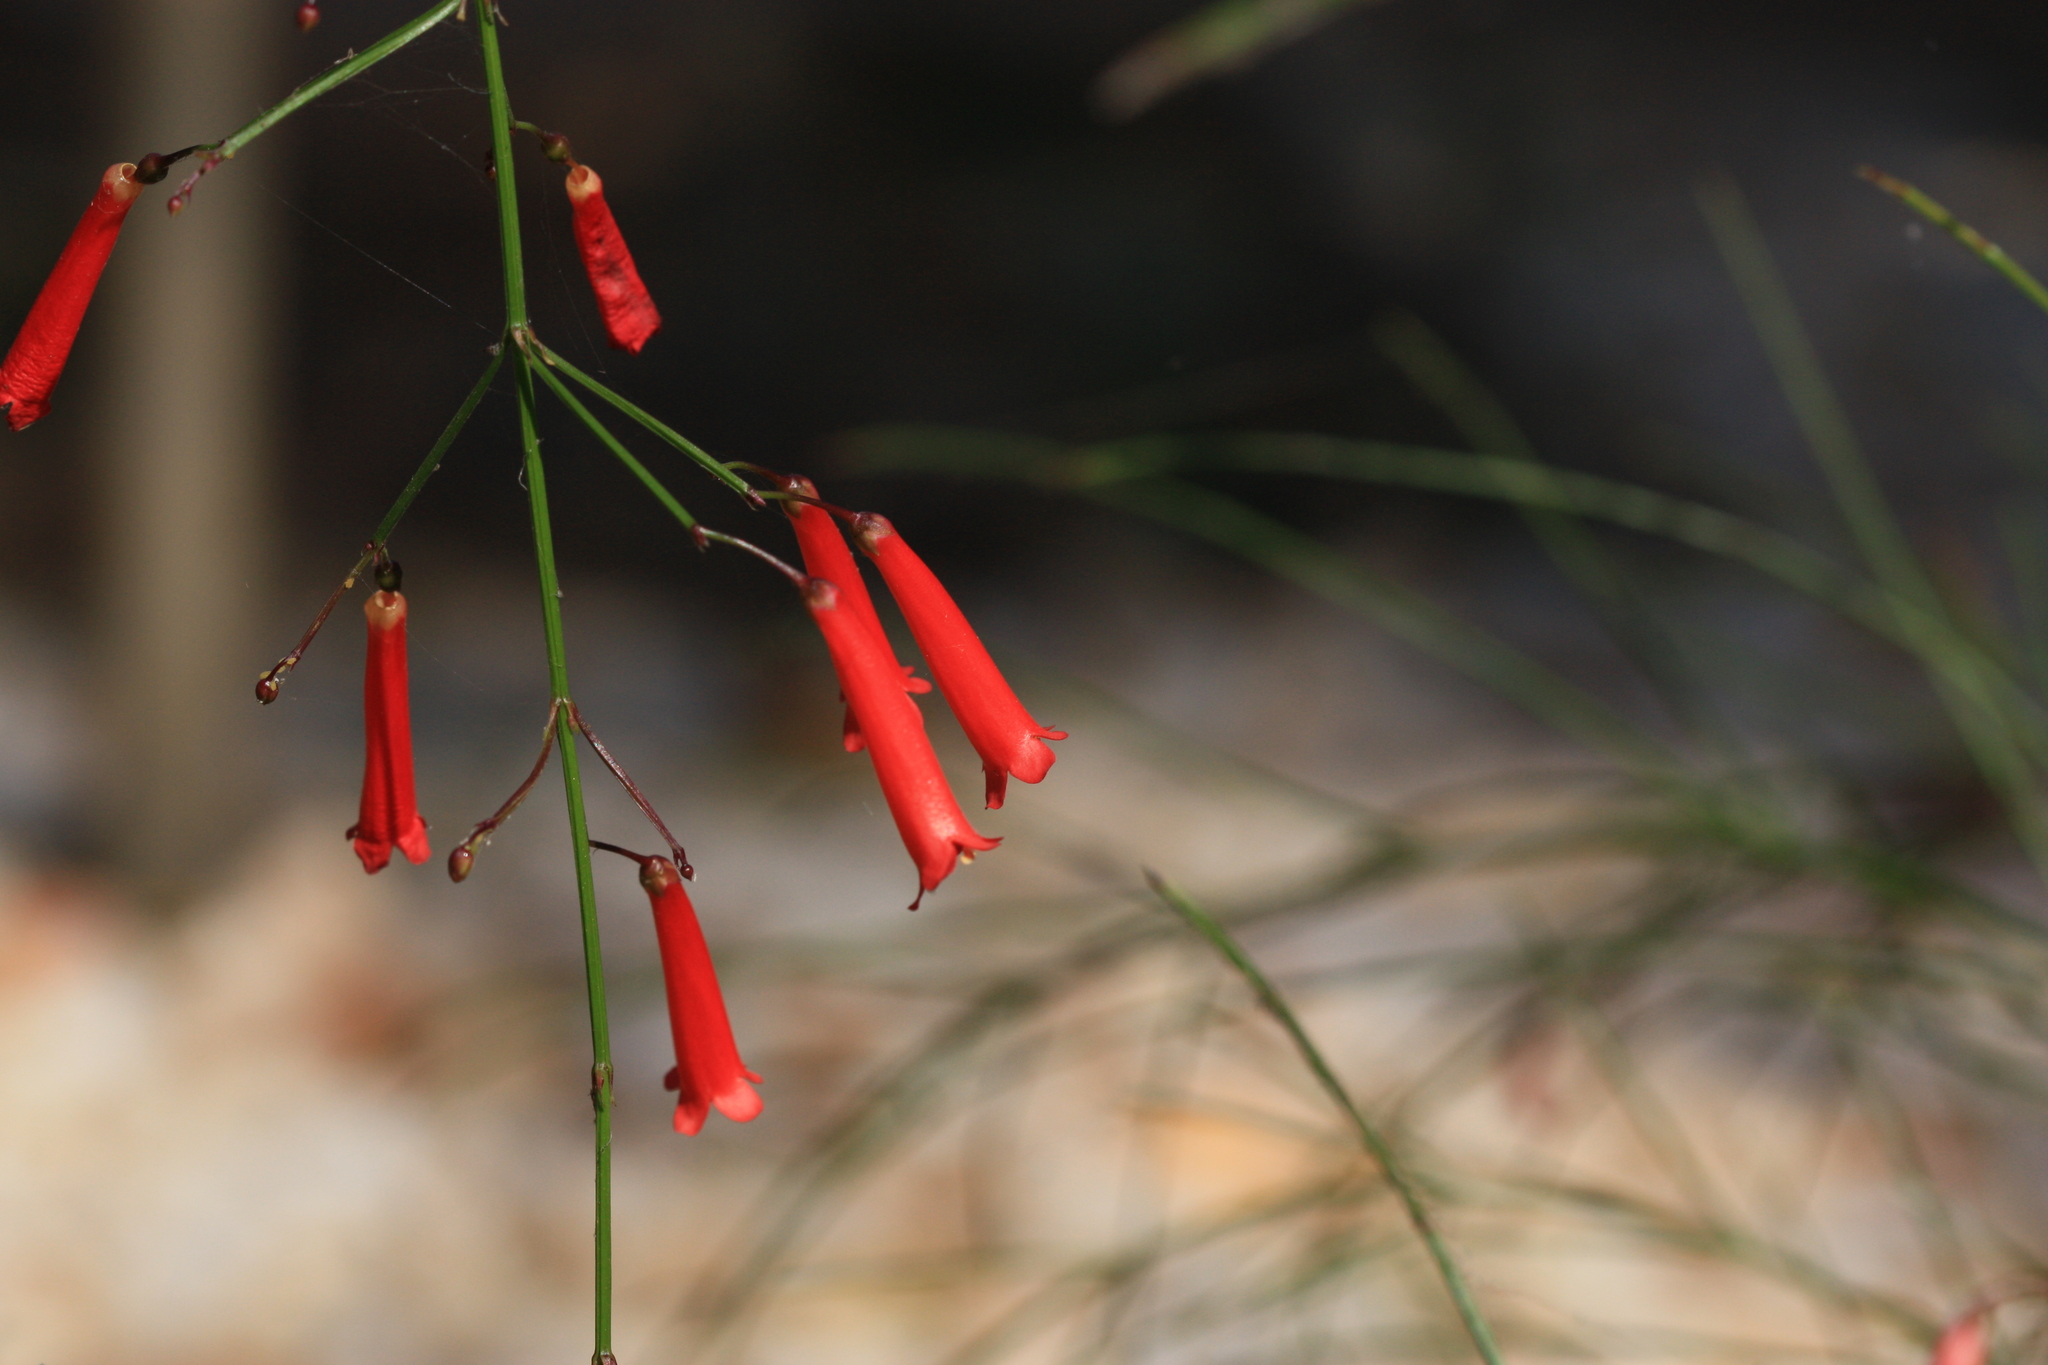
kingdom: Plantae
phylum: Tracheophyta
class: Magnoliopsida
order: Lamiales
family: Plantaginaceae
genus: Russelia
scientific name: Russelia equisetiformis
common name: Fountainbush
